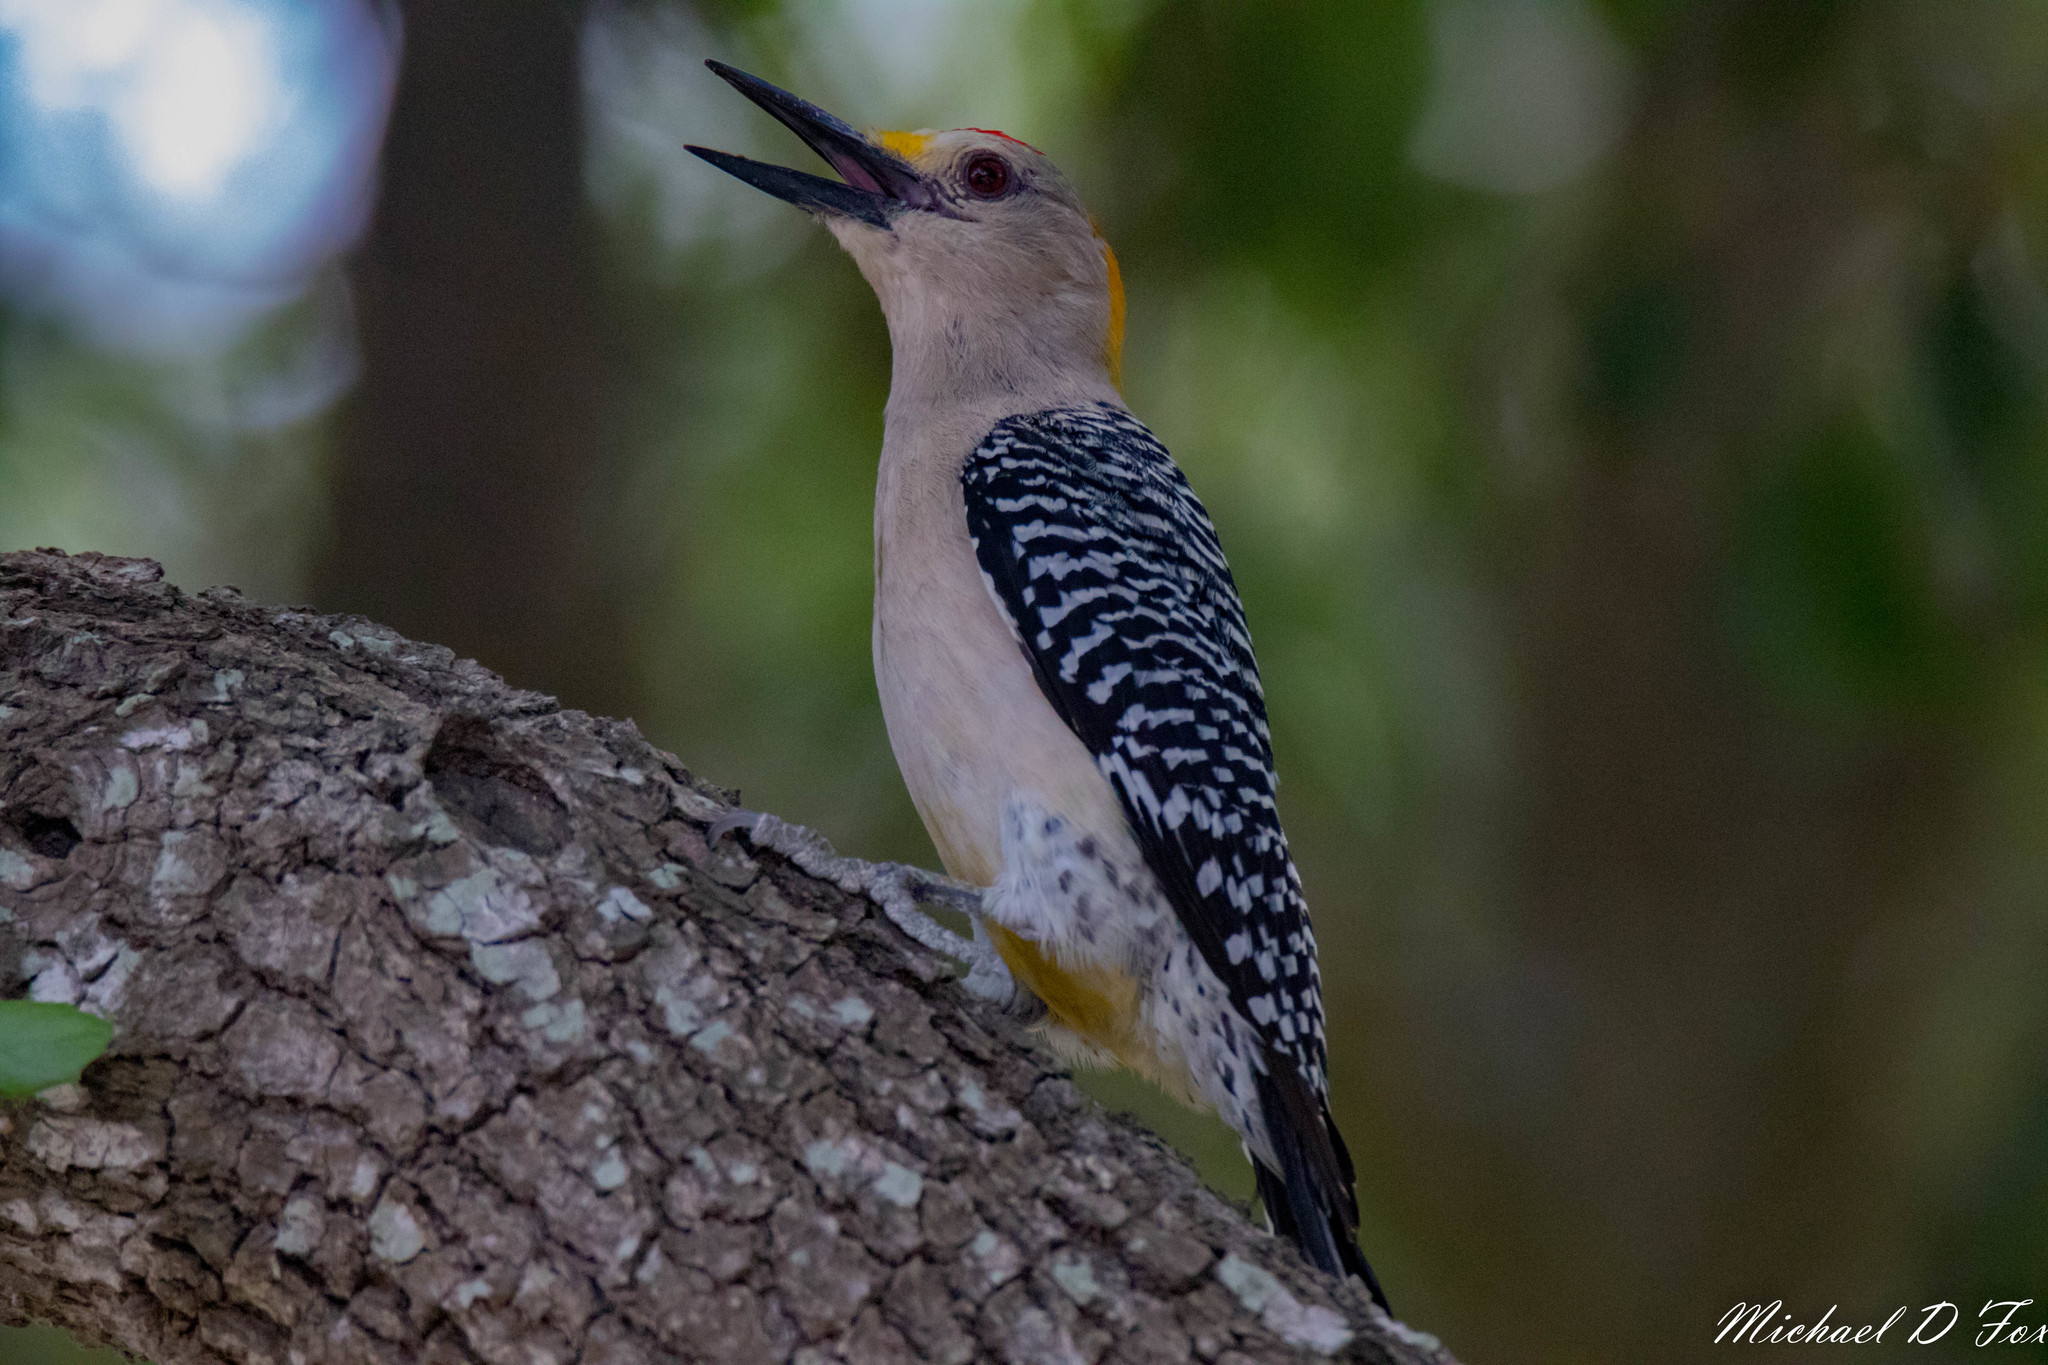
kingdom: Animalia
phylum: Chordata
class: Aves
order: Piciformes
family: Picidae
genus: Melanerpes
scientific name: Melanerpes aurifrons
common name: Golden-fronted woodpecker
